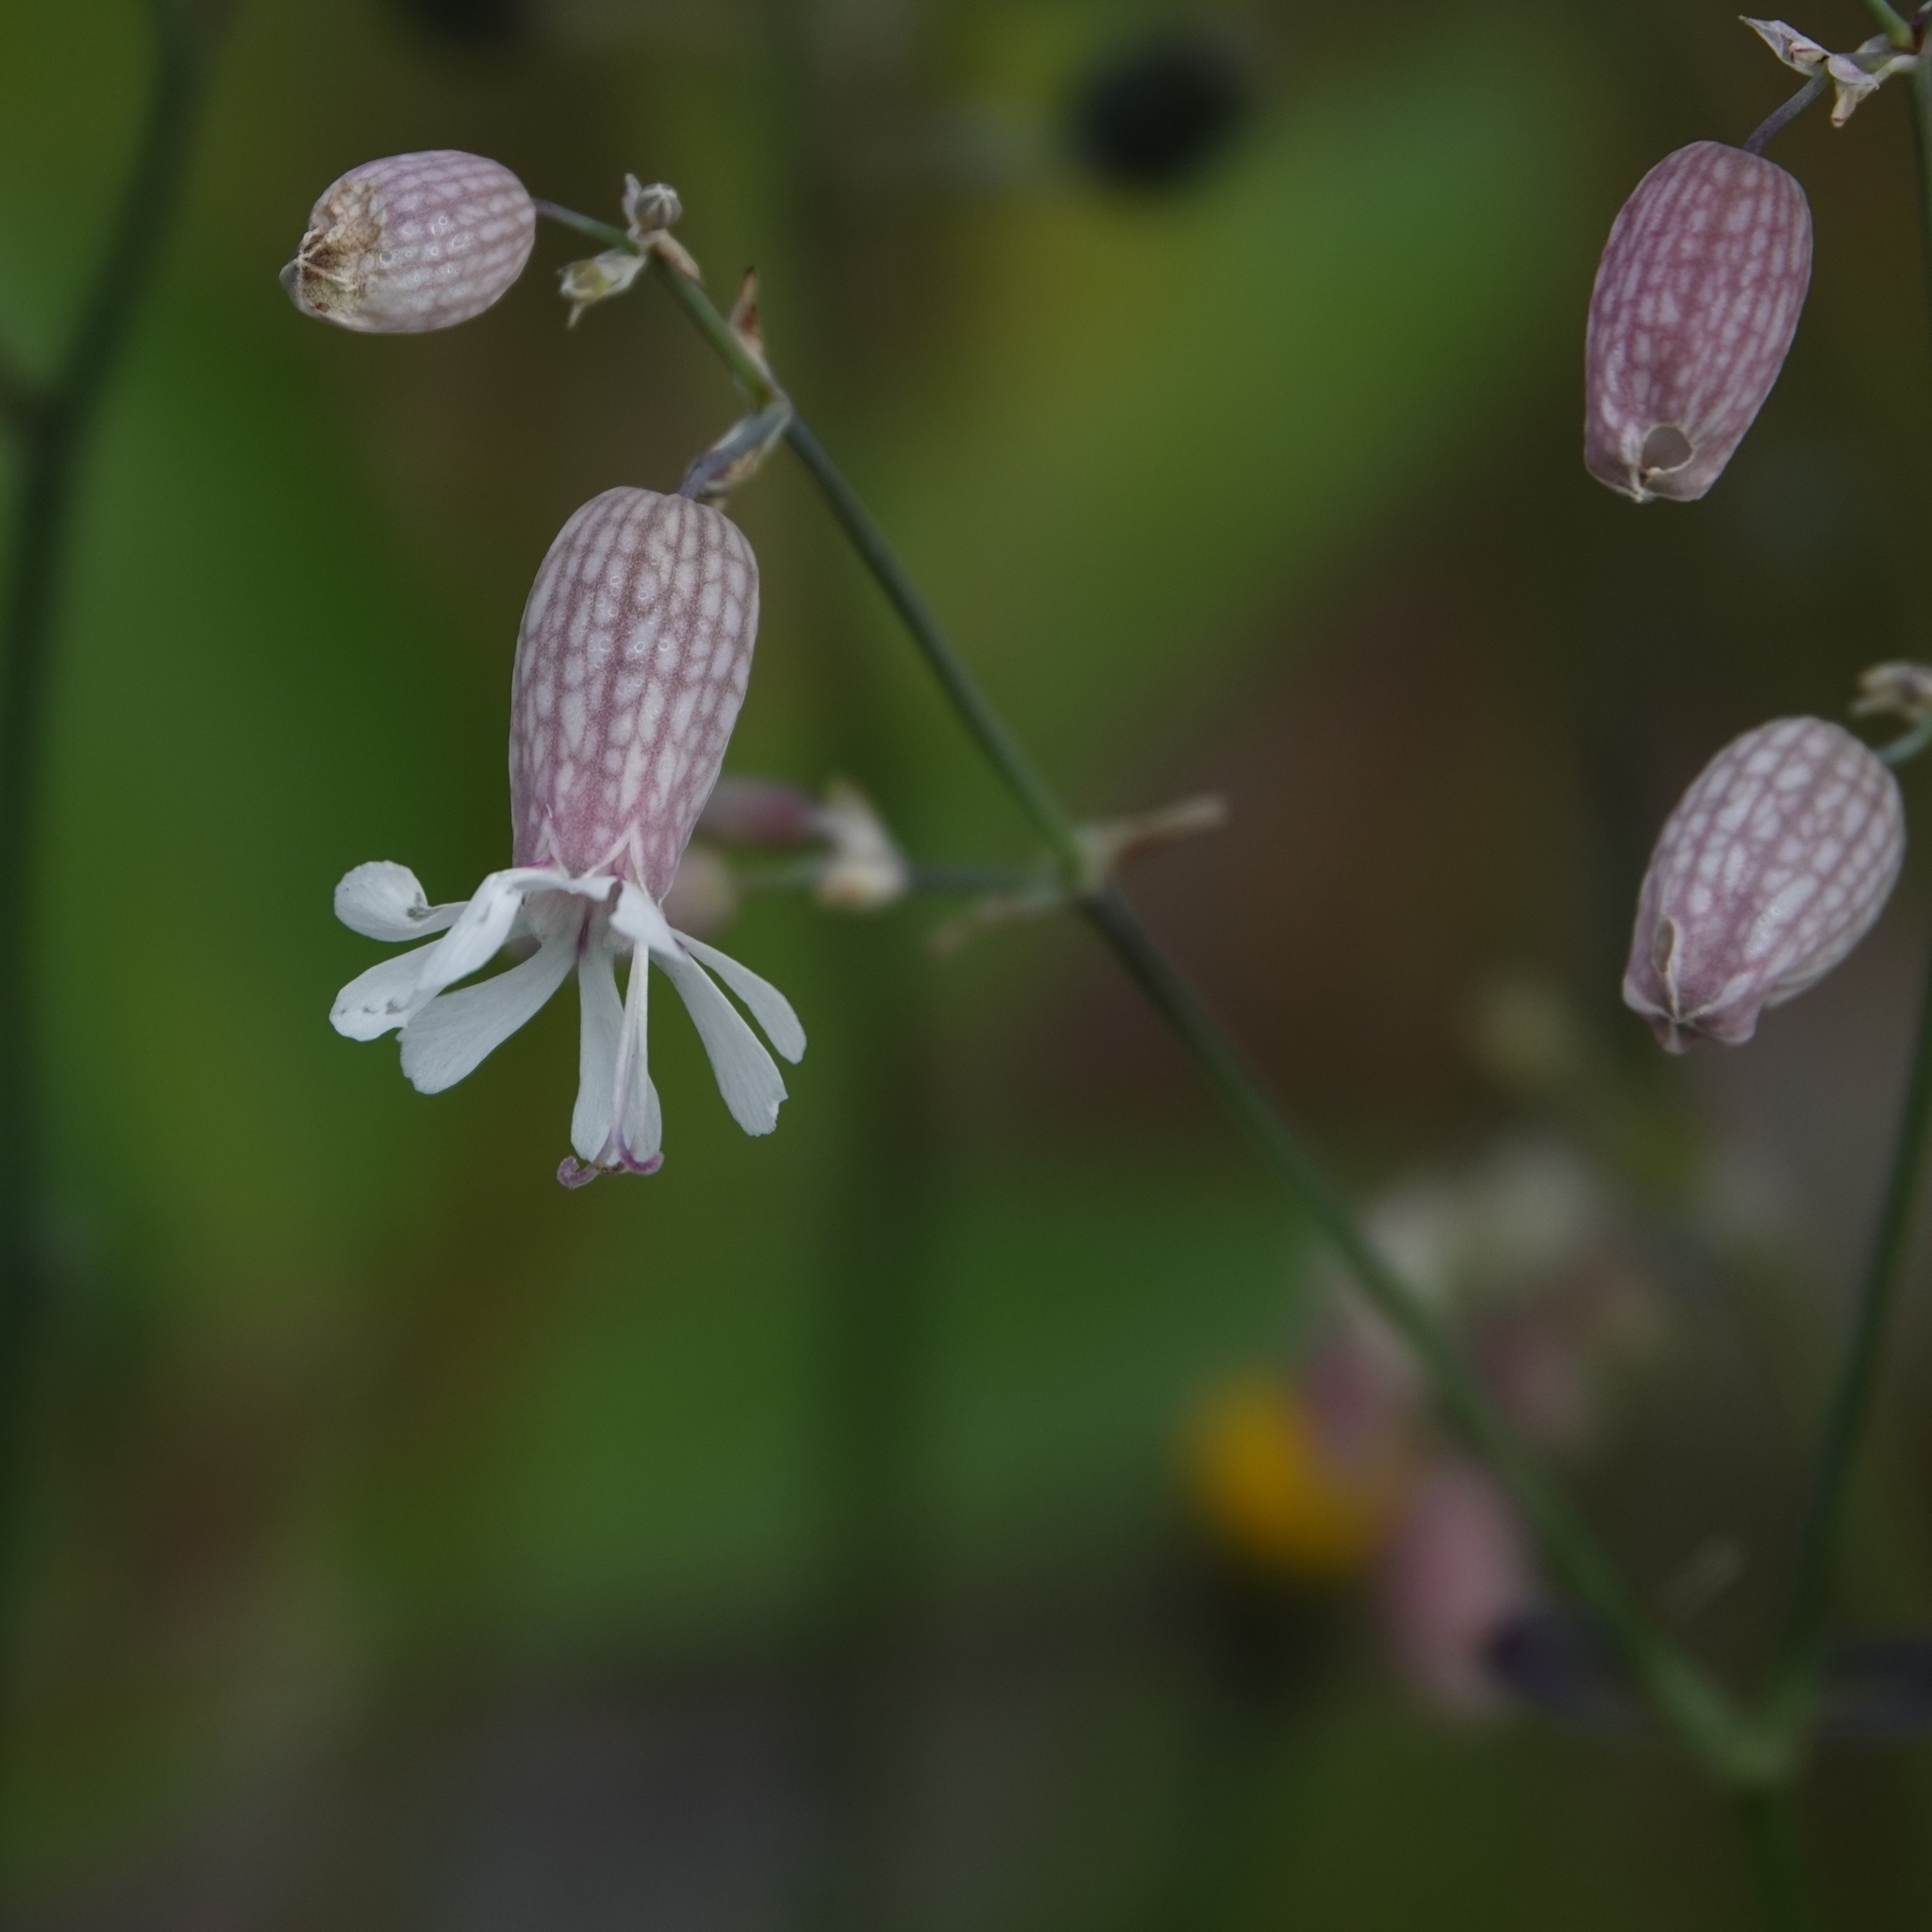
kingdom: Plantae
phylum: Tracheophyta
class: Magnoliopsida
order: Caryophyllales
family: Caryophyllaceae
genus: Silene
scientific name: Silene vulgaris
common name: Bladder campion
